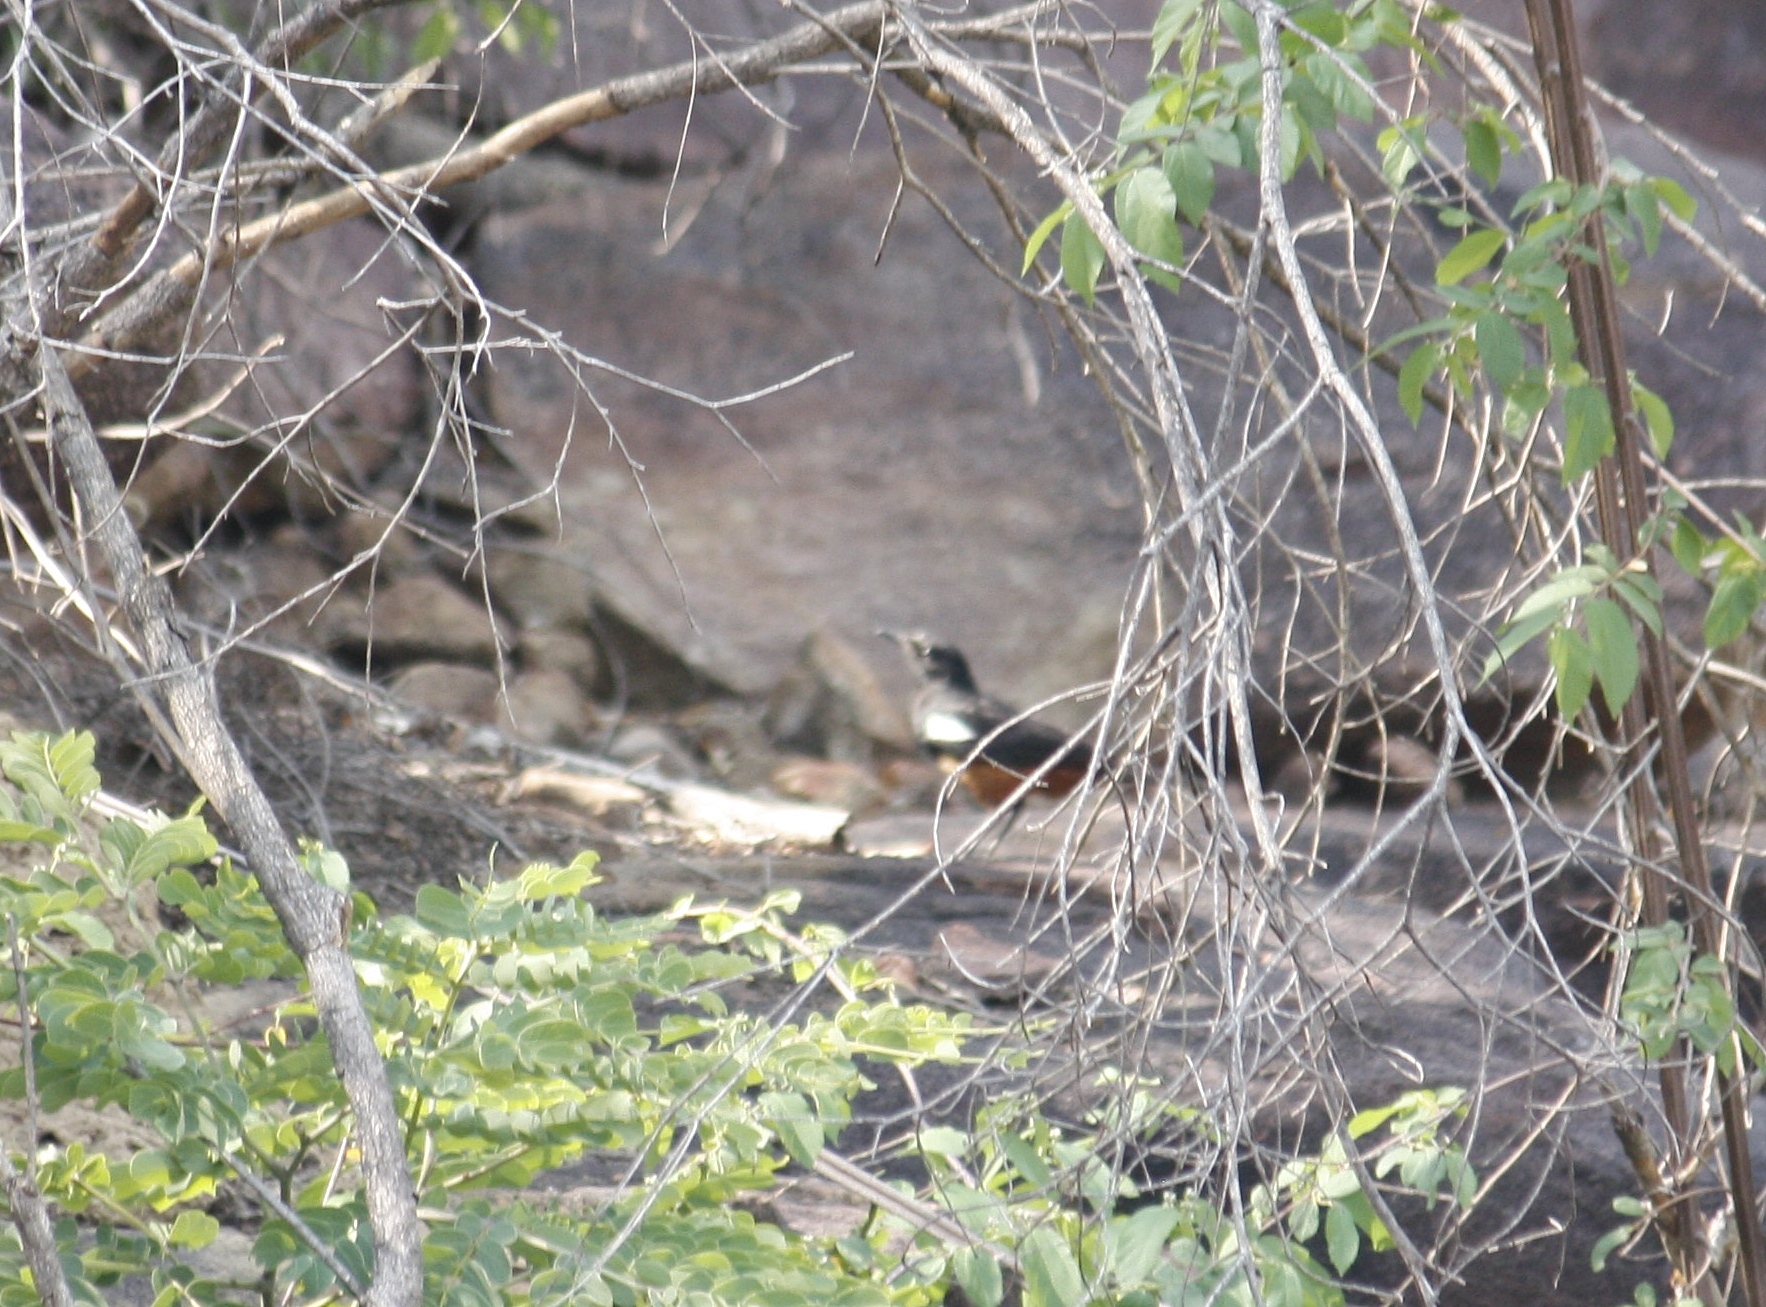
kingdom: Animalia
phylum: Chordata
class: Aves
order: Passeriformes
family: Muscicapidae
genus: Thamnolaea
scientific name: Thamnolaea cinnamomeiventris
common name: Mocking cliff chat
